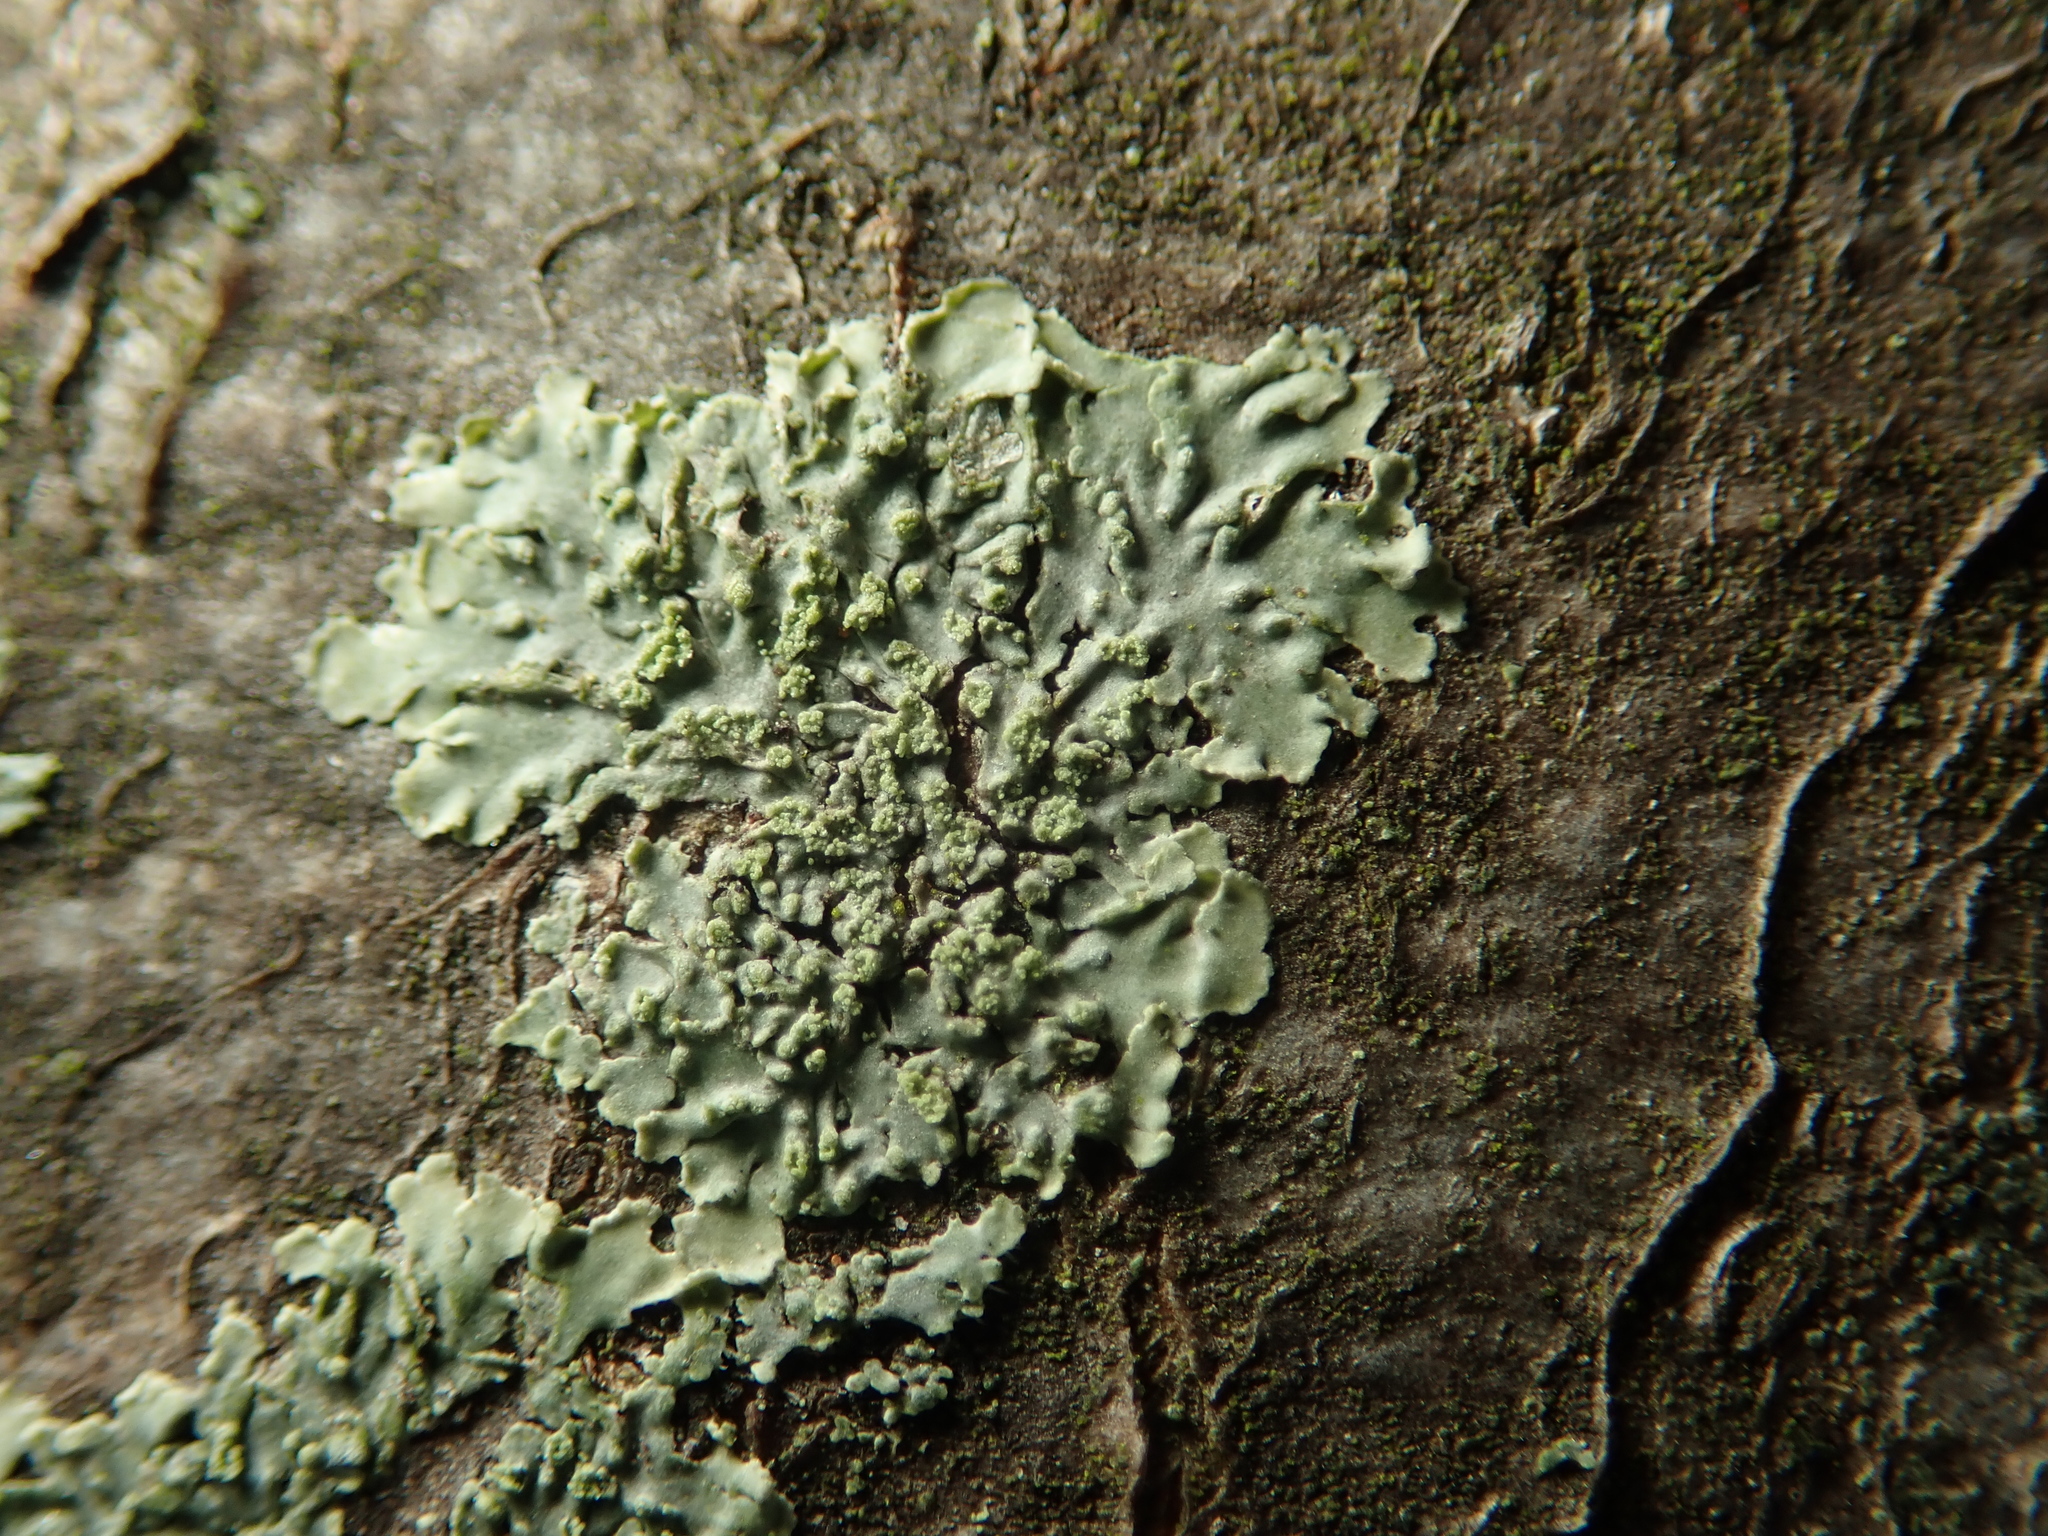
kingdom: Fungi
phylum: Ascomycota
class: Lecanoromycetes
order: Caliciales
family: Physciaceae
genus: Hyperphyscia
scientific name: Hyperphyscia adglutinata
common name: Grainy shadow-crust lichen
